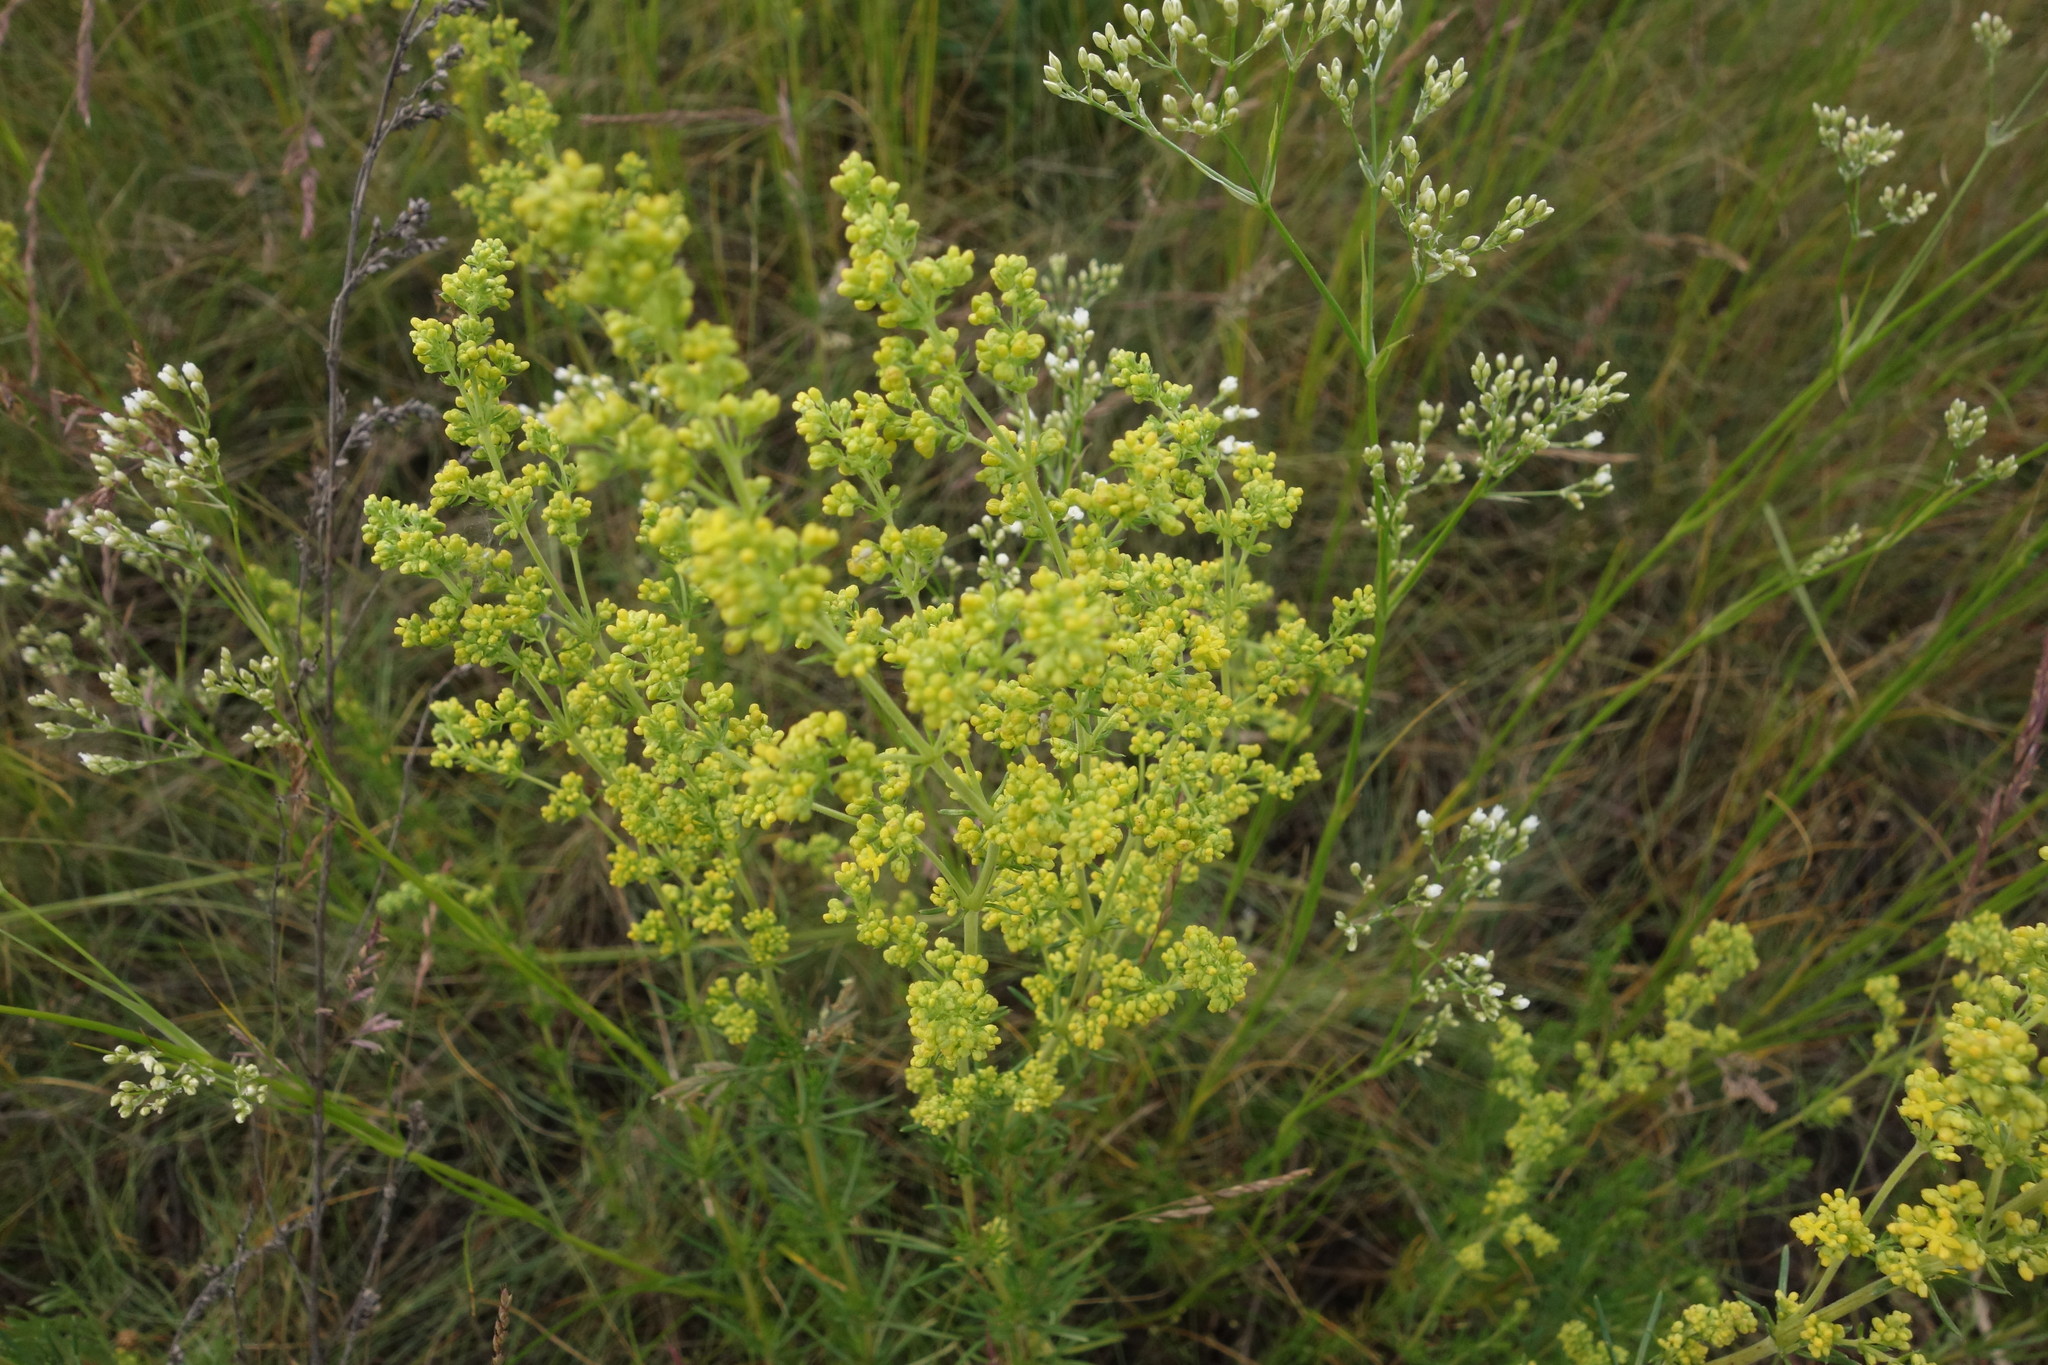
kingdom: Plantae
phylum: Tracheophyta
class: Magnoliopsida
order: Gentianales
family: Rubiaceae
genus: Galium
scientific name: Galium verum
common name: Lady's bedstraw
